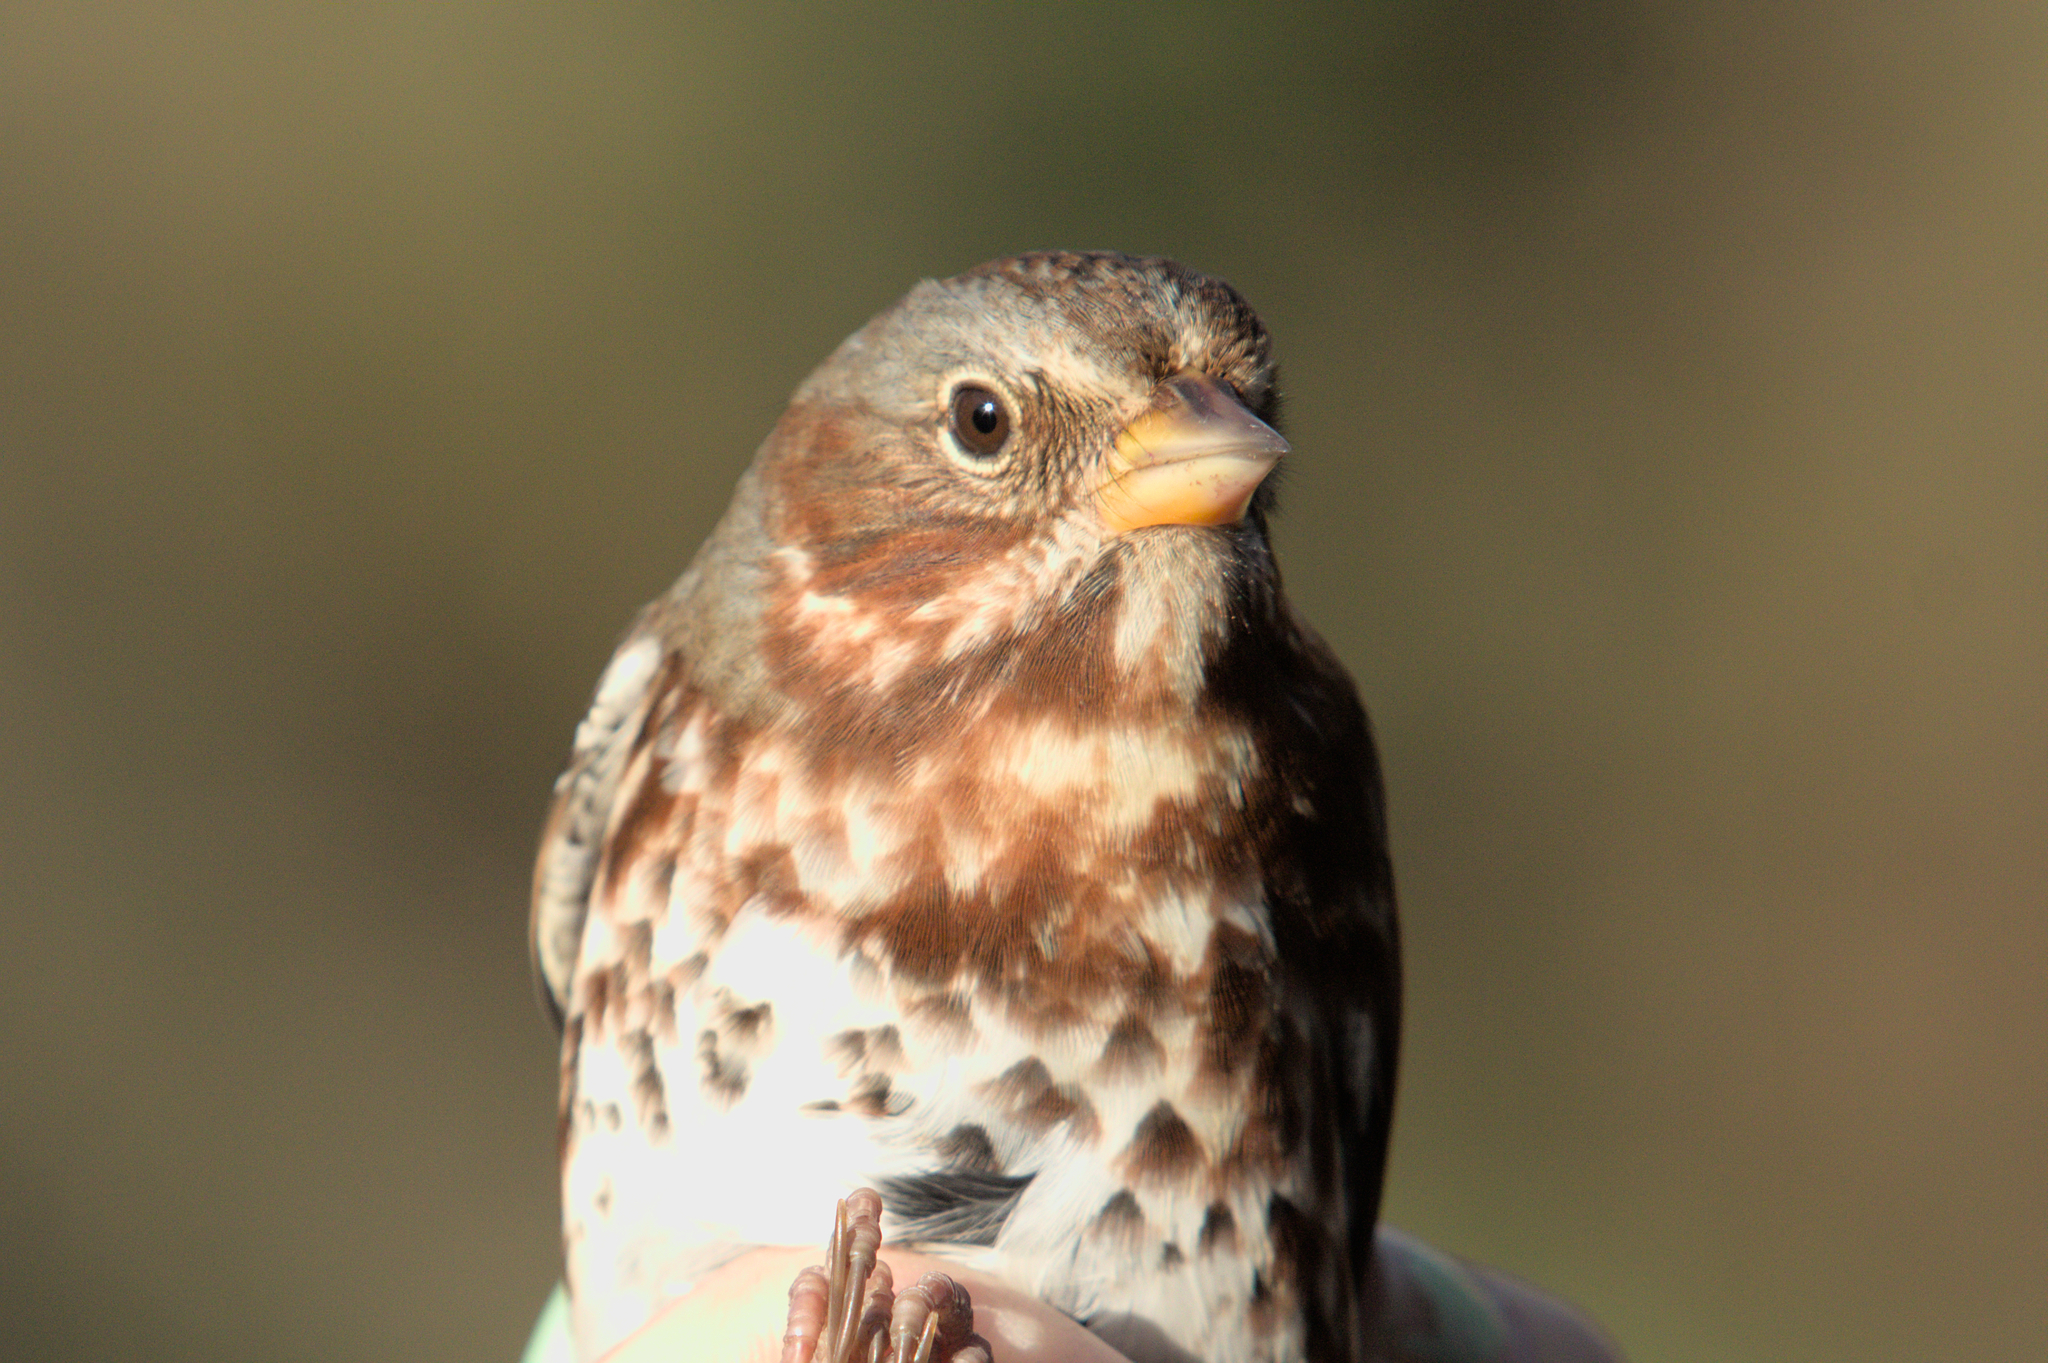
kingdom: Animalia
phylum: Chordata
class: Aves
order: Passeriformes
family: Passerellidae
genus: Passerella
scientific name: Passerella iliaca
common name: Fox sparrow
